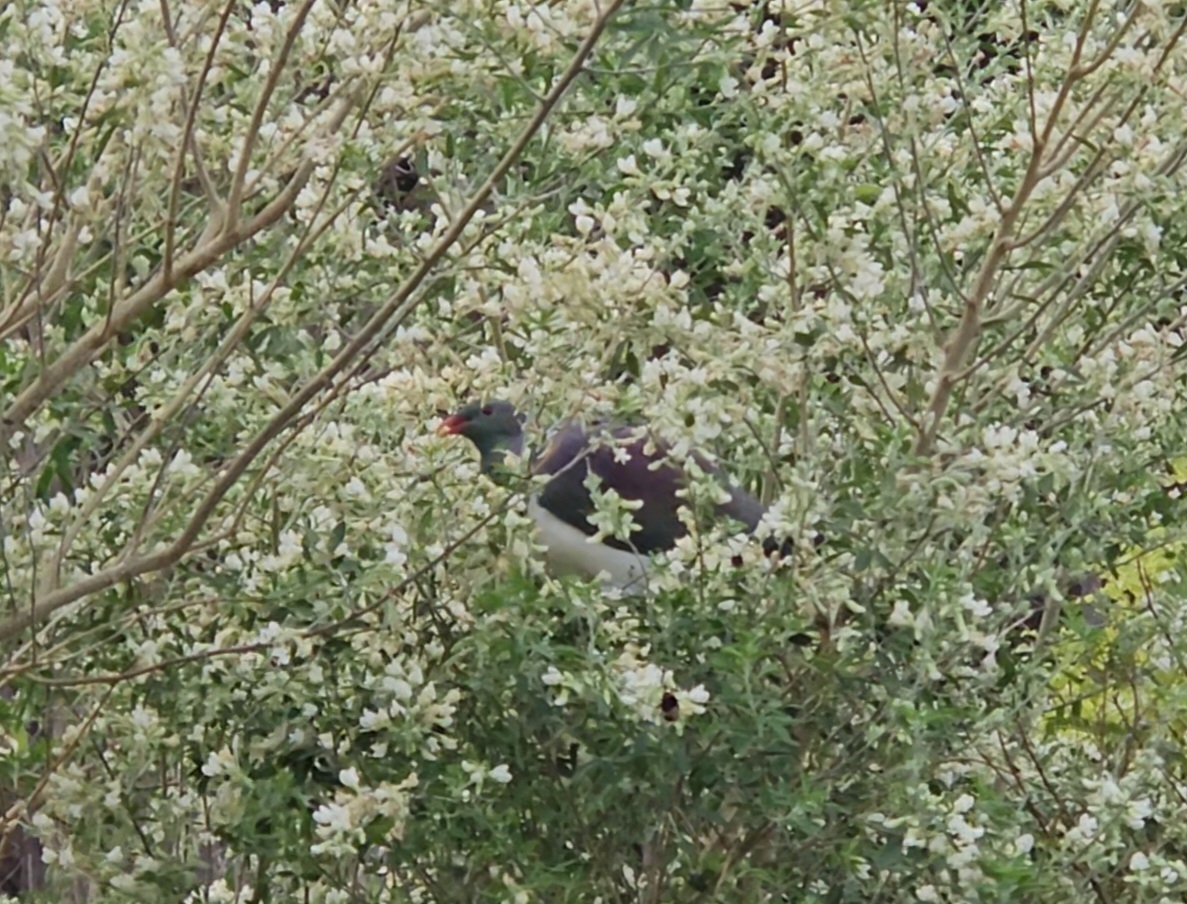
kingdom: Animalia
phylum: Chordata
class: Aves
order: Columbiformes
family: Columbidae
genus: Hemiphaga
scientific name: Hemiphaga novaeseelandiae
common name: New zealand pigeon
